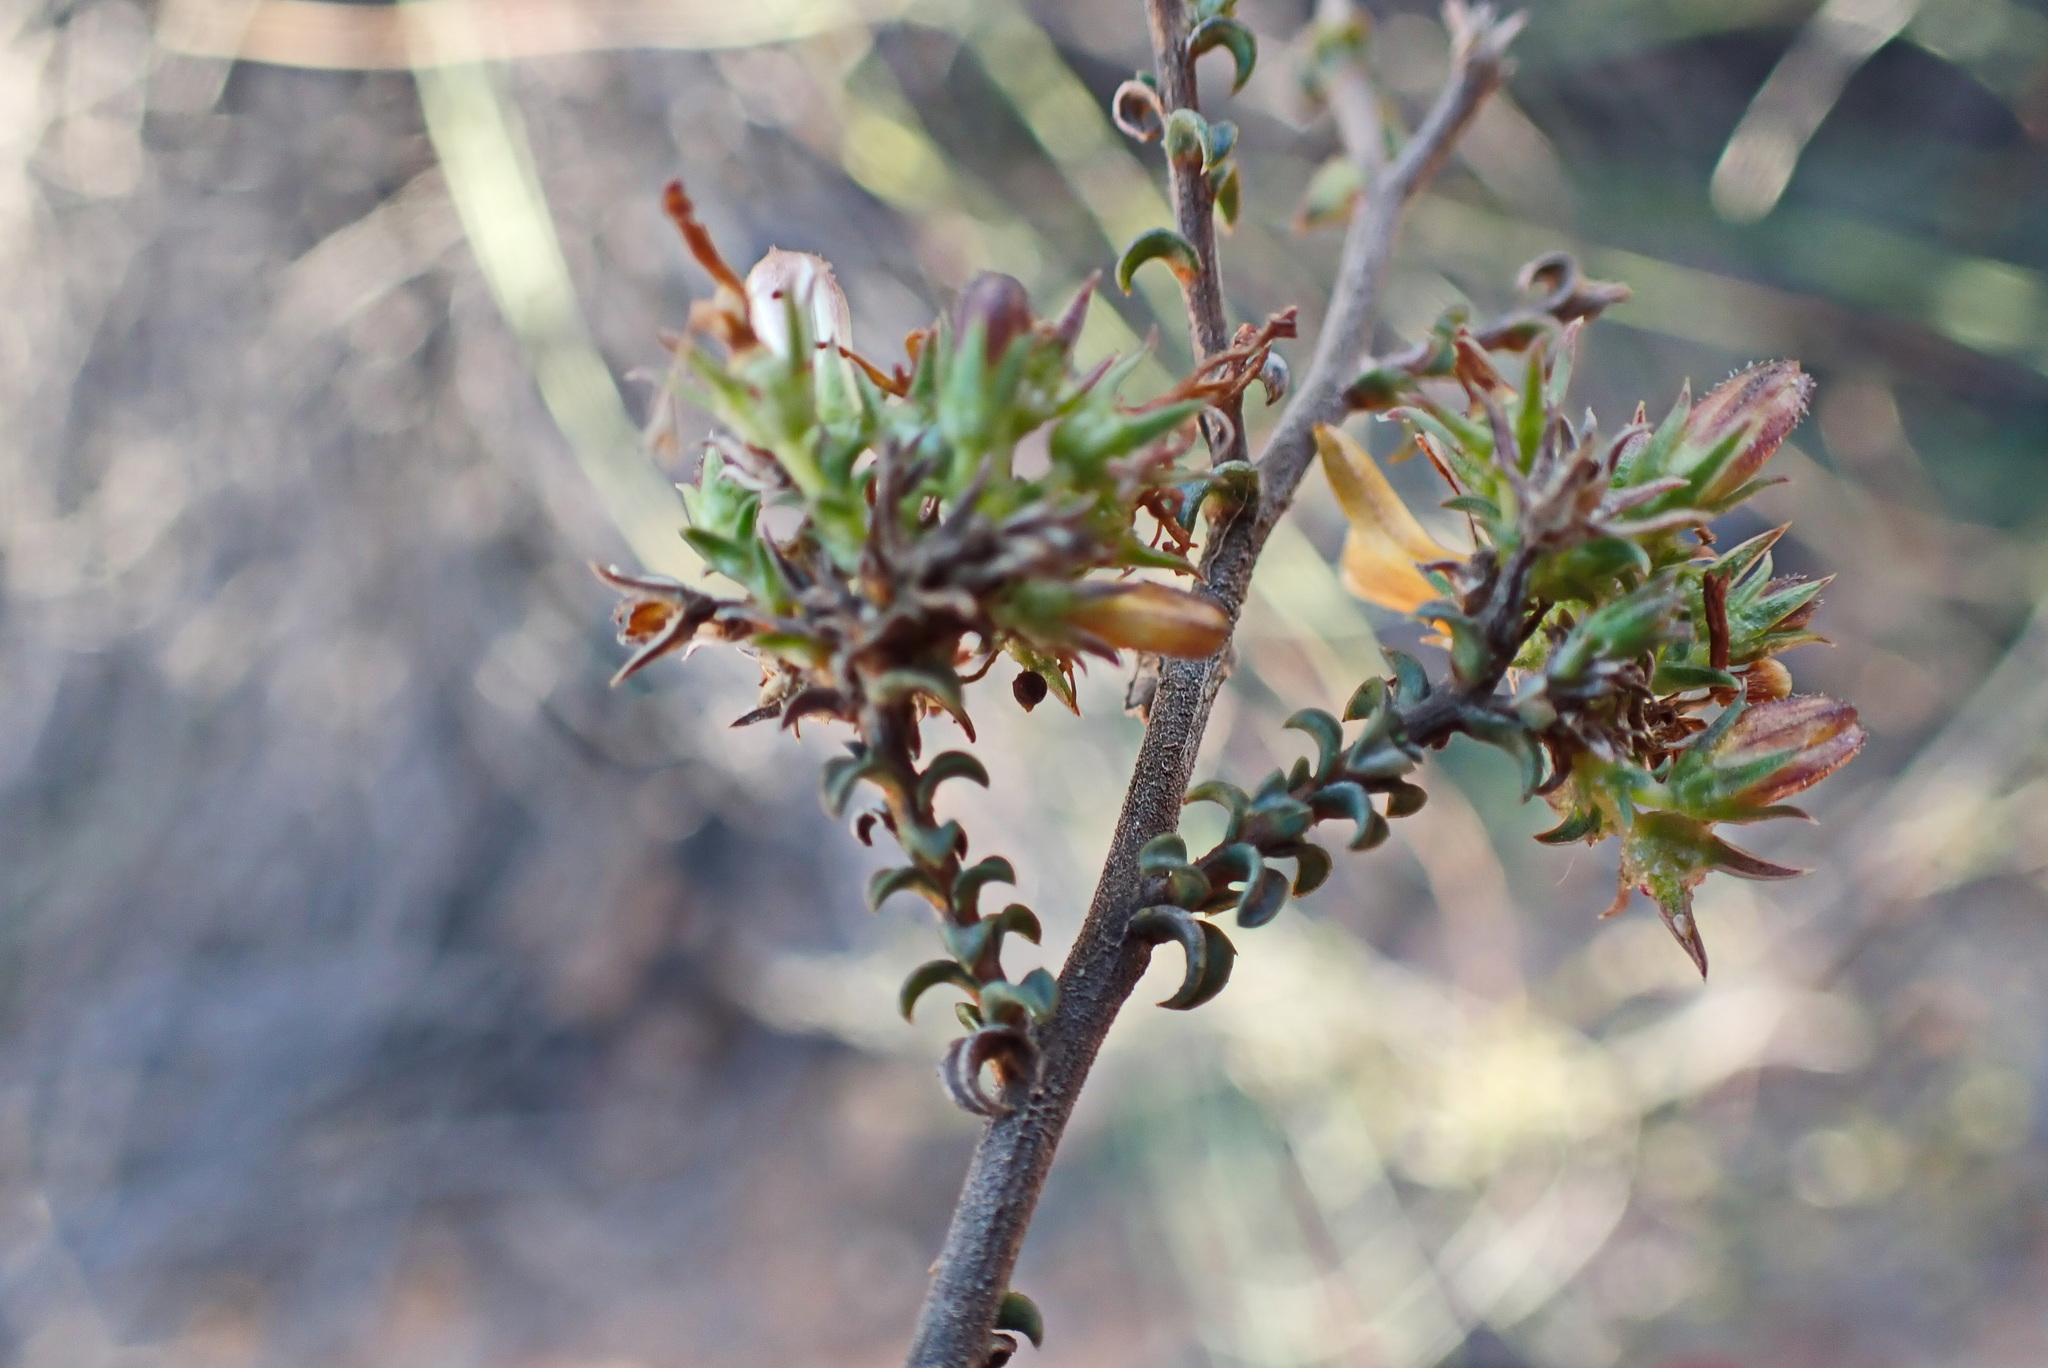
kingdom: Plantae
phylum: Tracheophyta
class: Magnoliopsida
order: Asterales
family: Campanulaceae
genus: Wahlenbergia
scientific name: Wahlenbergia neorigida
